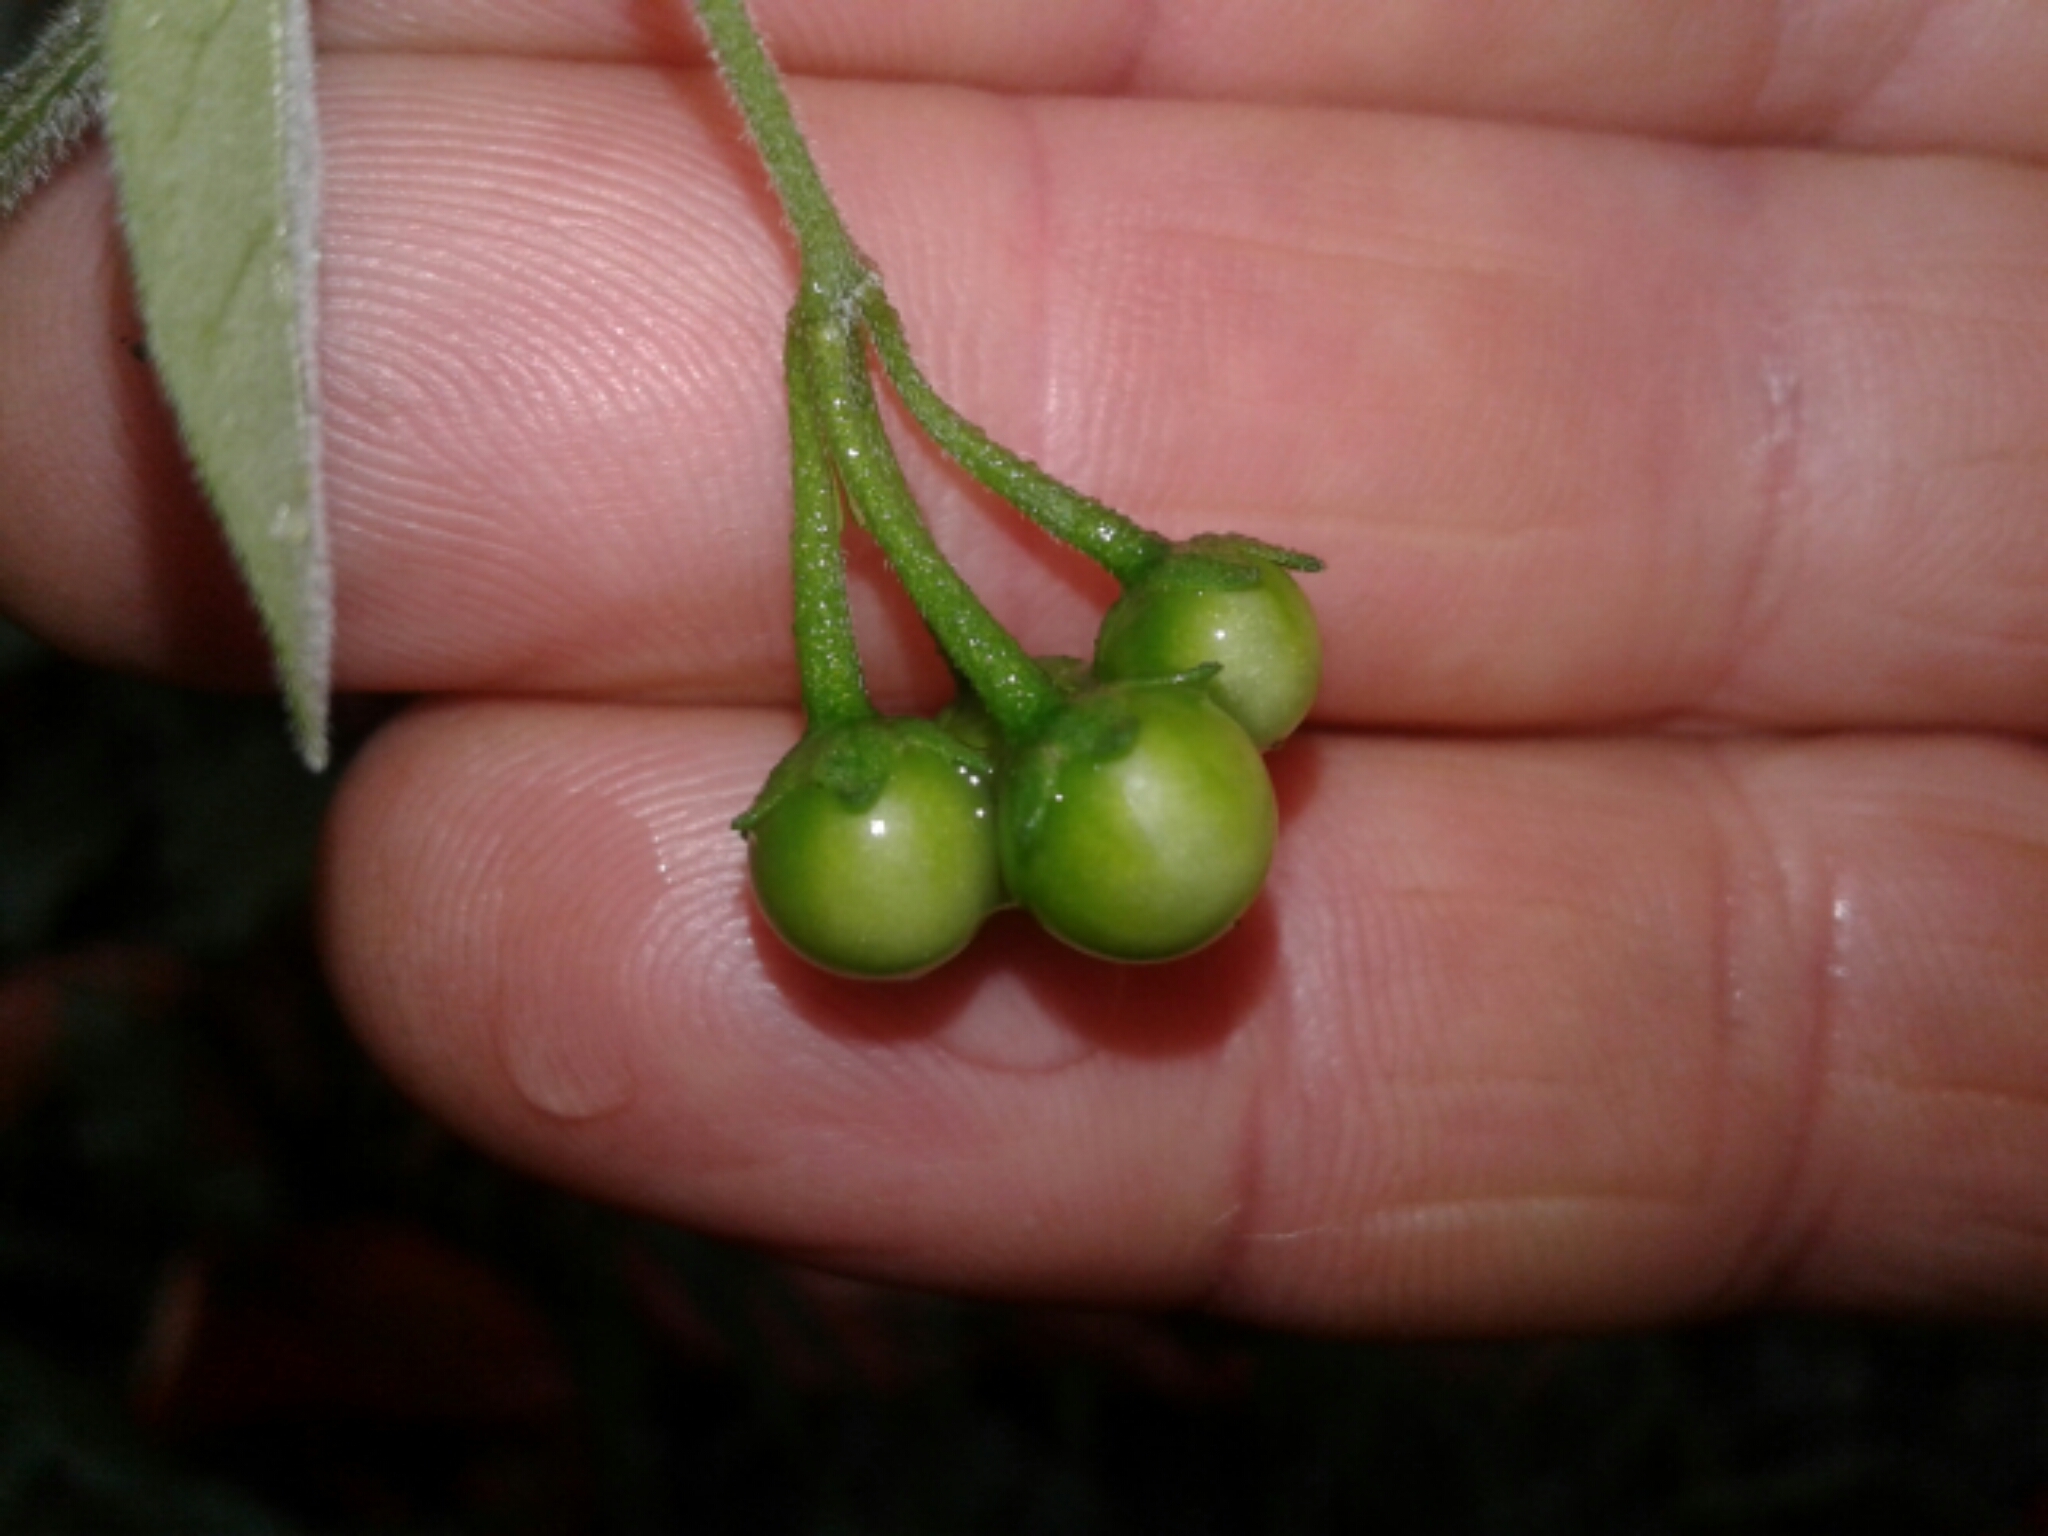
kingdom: Plantae
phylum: Tracheophyta
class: Magnoliopsida
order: Solanales
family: Solanaceae
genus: Solanum
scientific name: Solanum chenopodioides
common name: Tall nightshade
